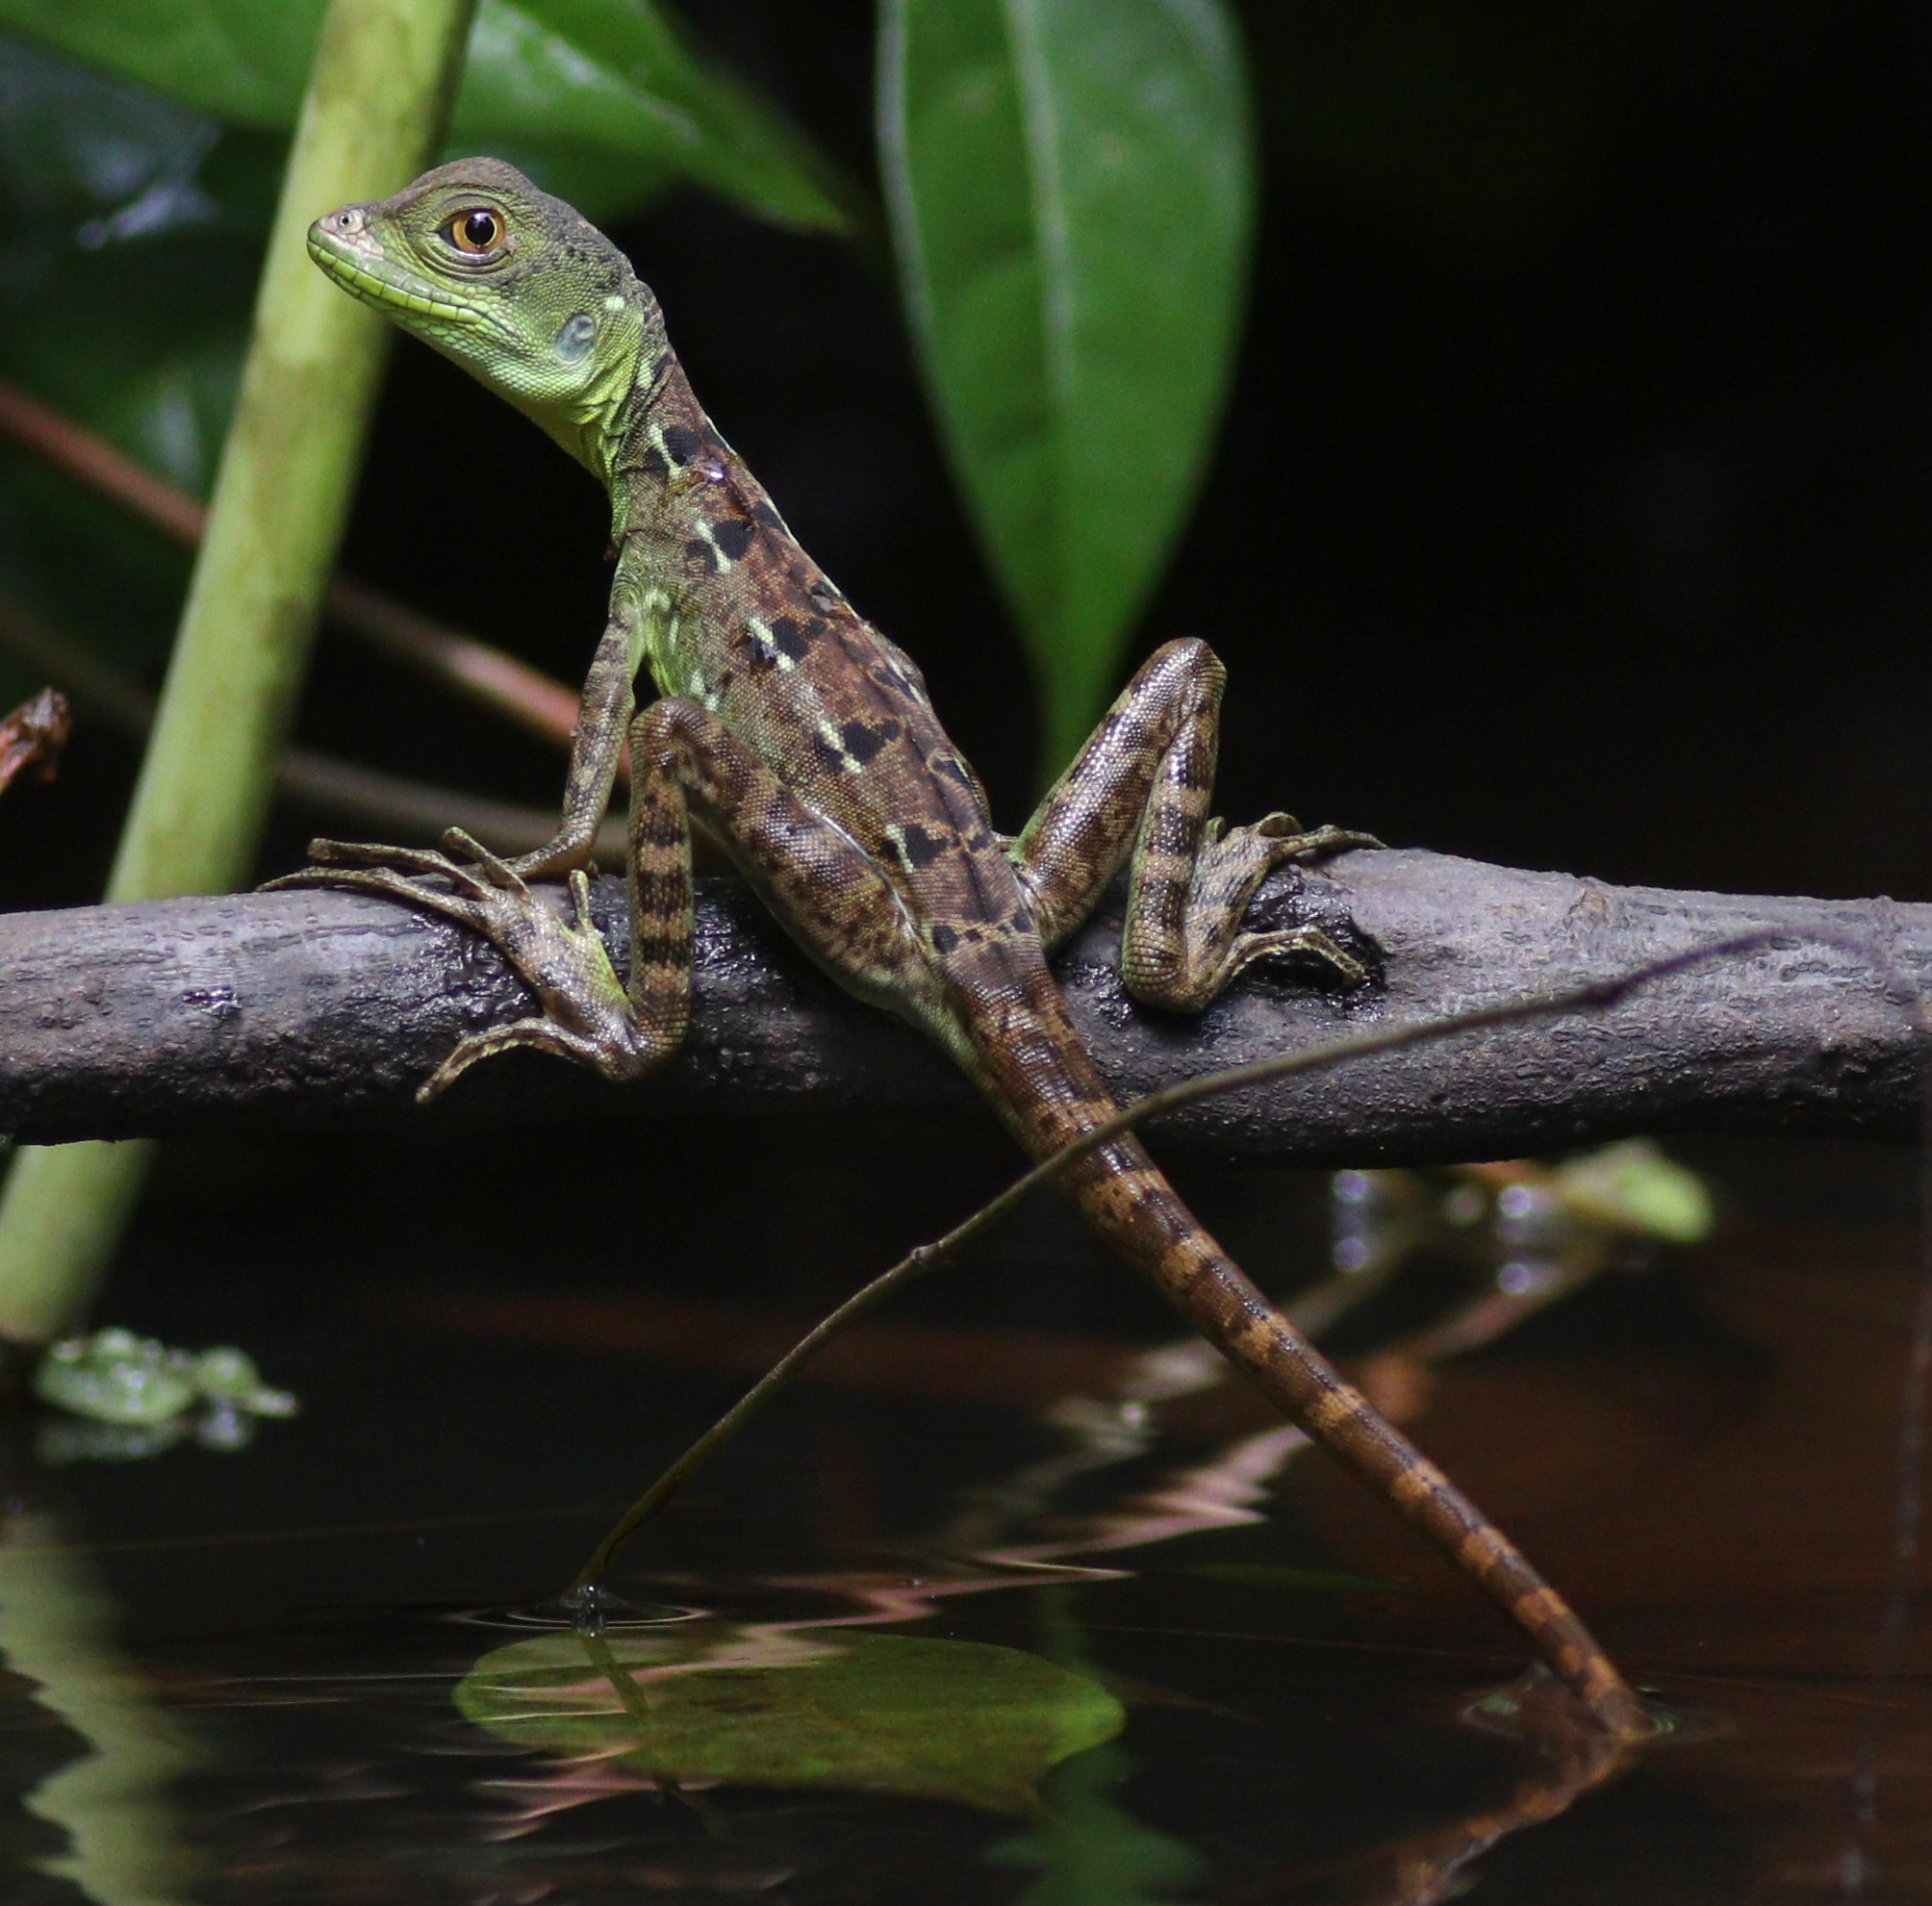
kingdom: Animalia
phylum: Chordata
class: Squamata
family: Corytophanidae
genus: Basiliscus
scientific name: Basiliscus plumifrons
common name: Green basilisk
